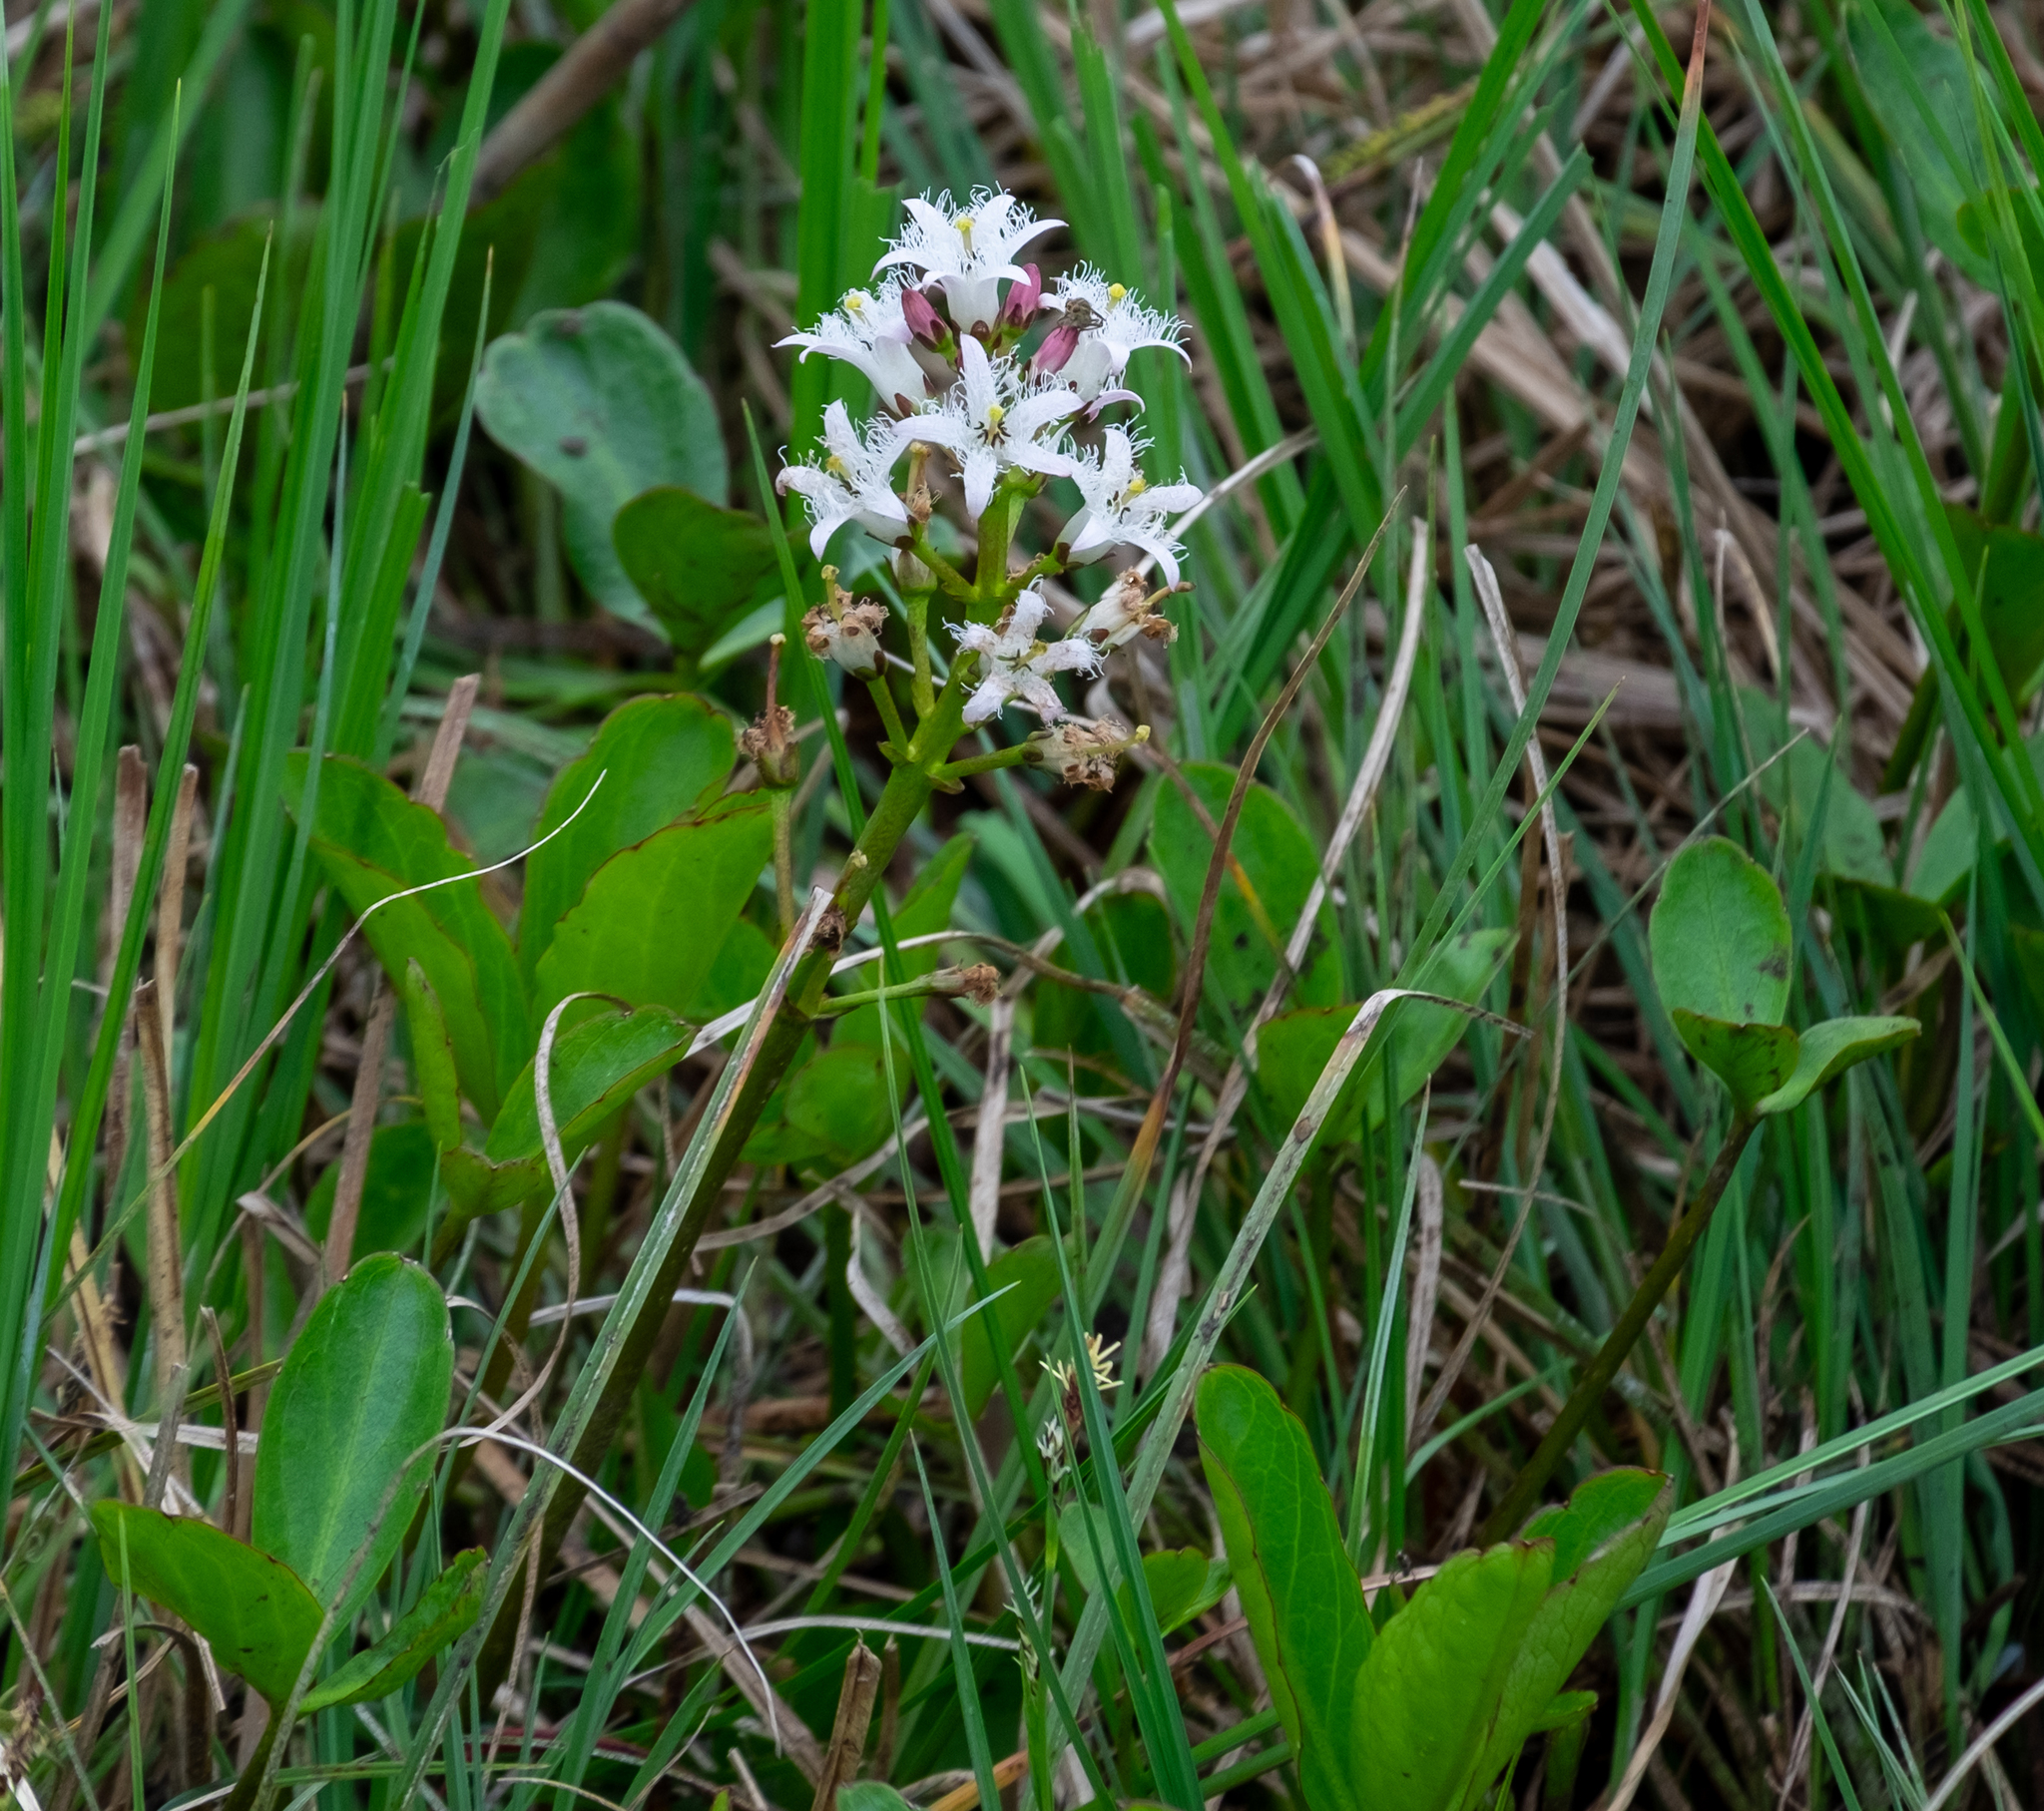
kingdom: Plantae
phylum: Tracheophyta
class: Magnoliopsida
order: Asterales
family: Menyanthaceae
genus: Menyanthes
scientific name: Menyanthes trifoliata
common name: Bogbean
